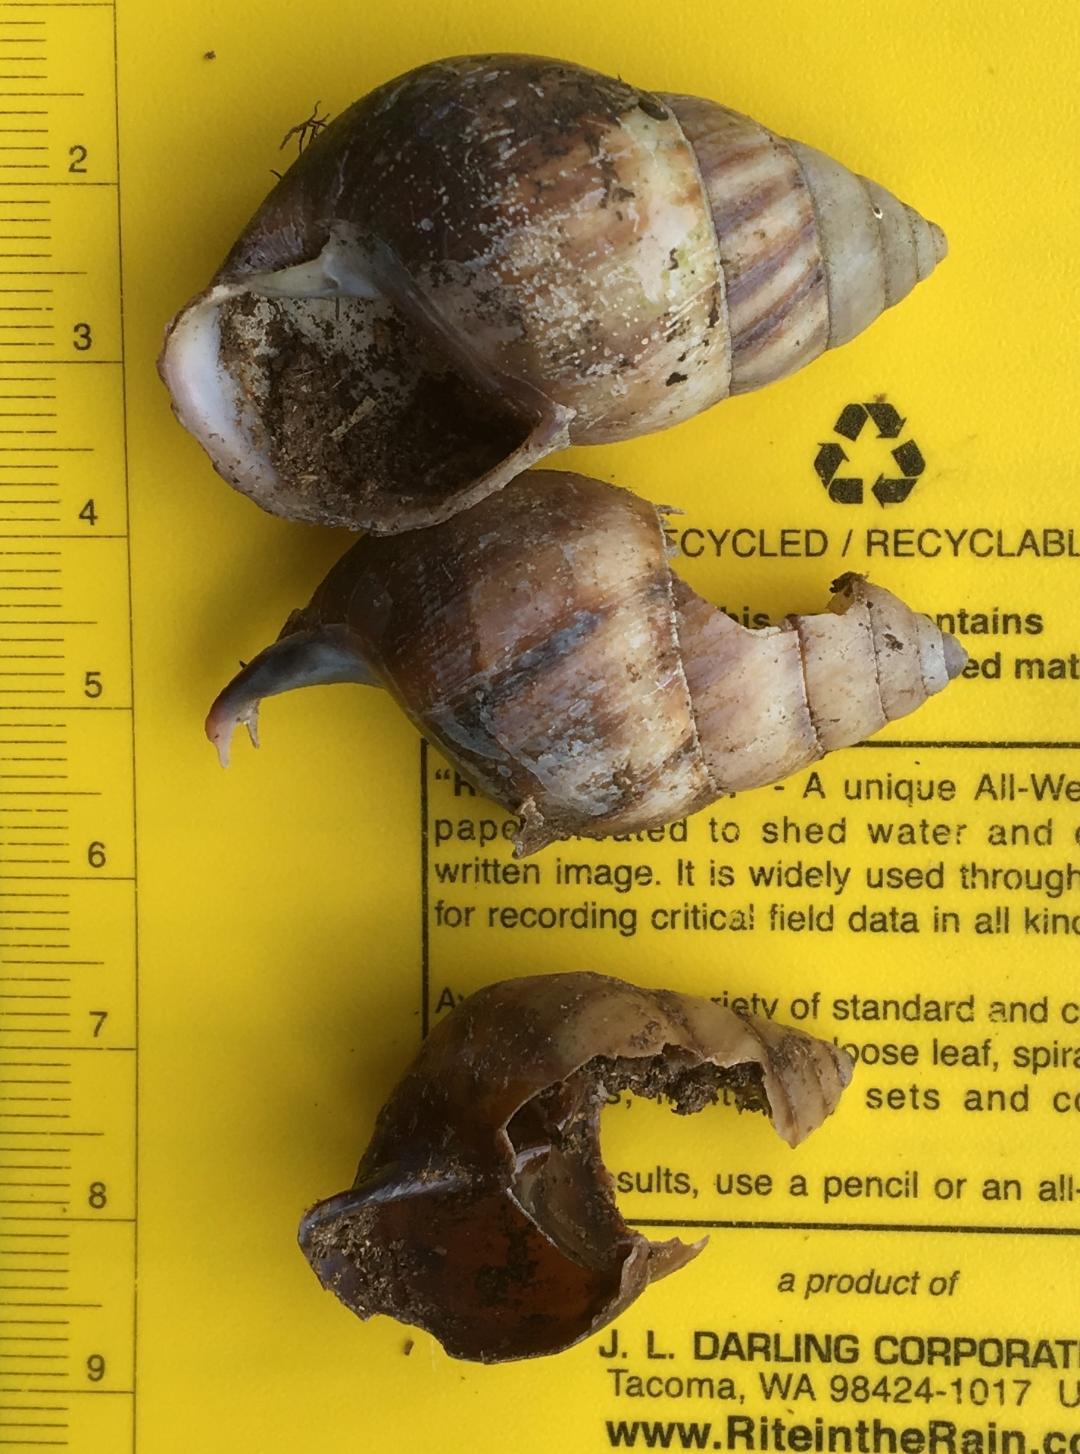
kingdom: Animalia
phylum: Mollusca
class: Gastropoda
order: Stylommatophora
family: Camaenidae
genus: Amphidromus
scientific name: Amphidromus inversus
